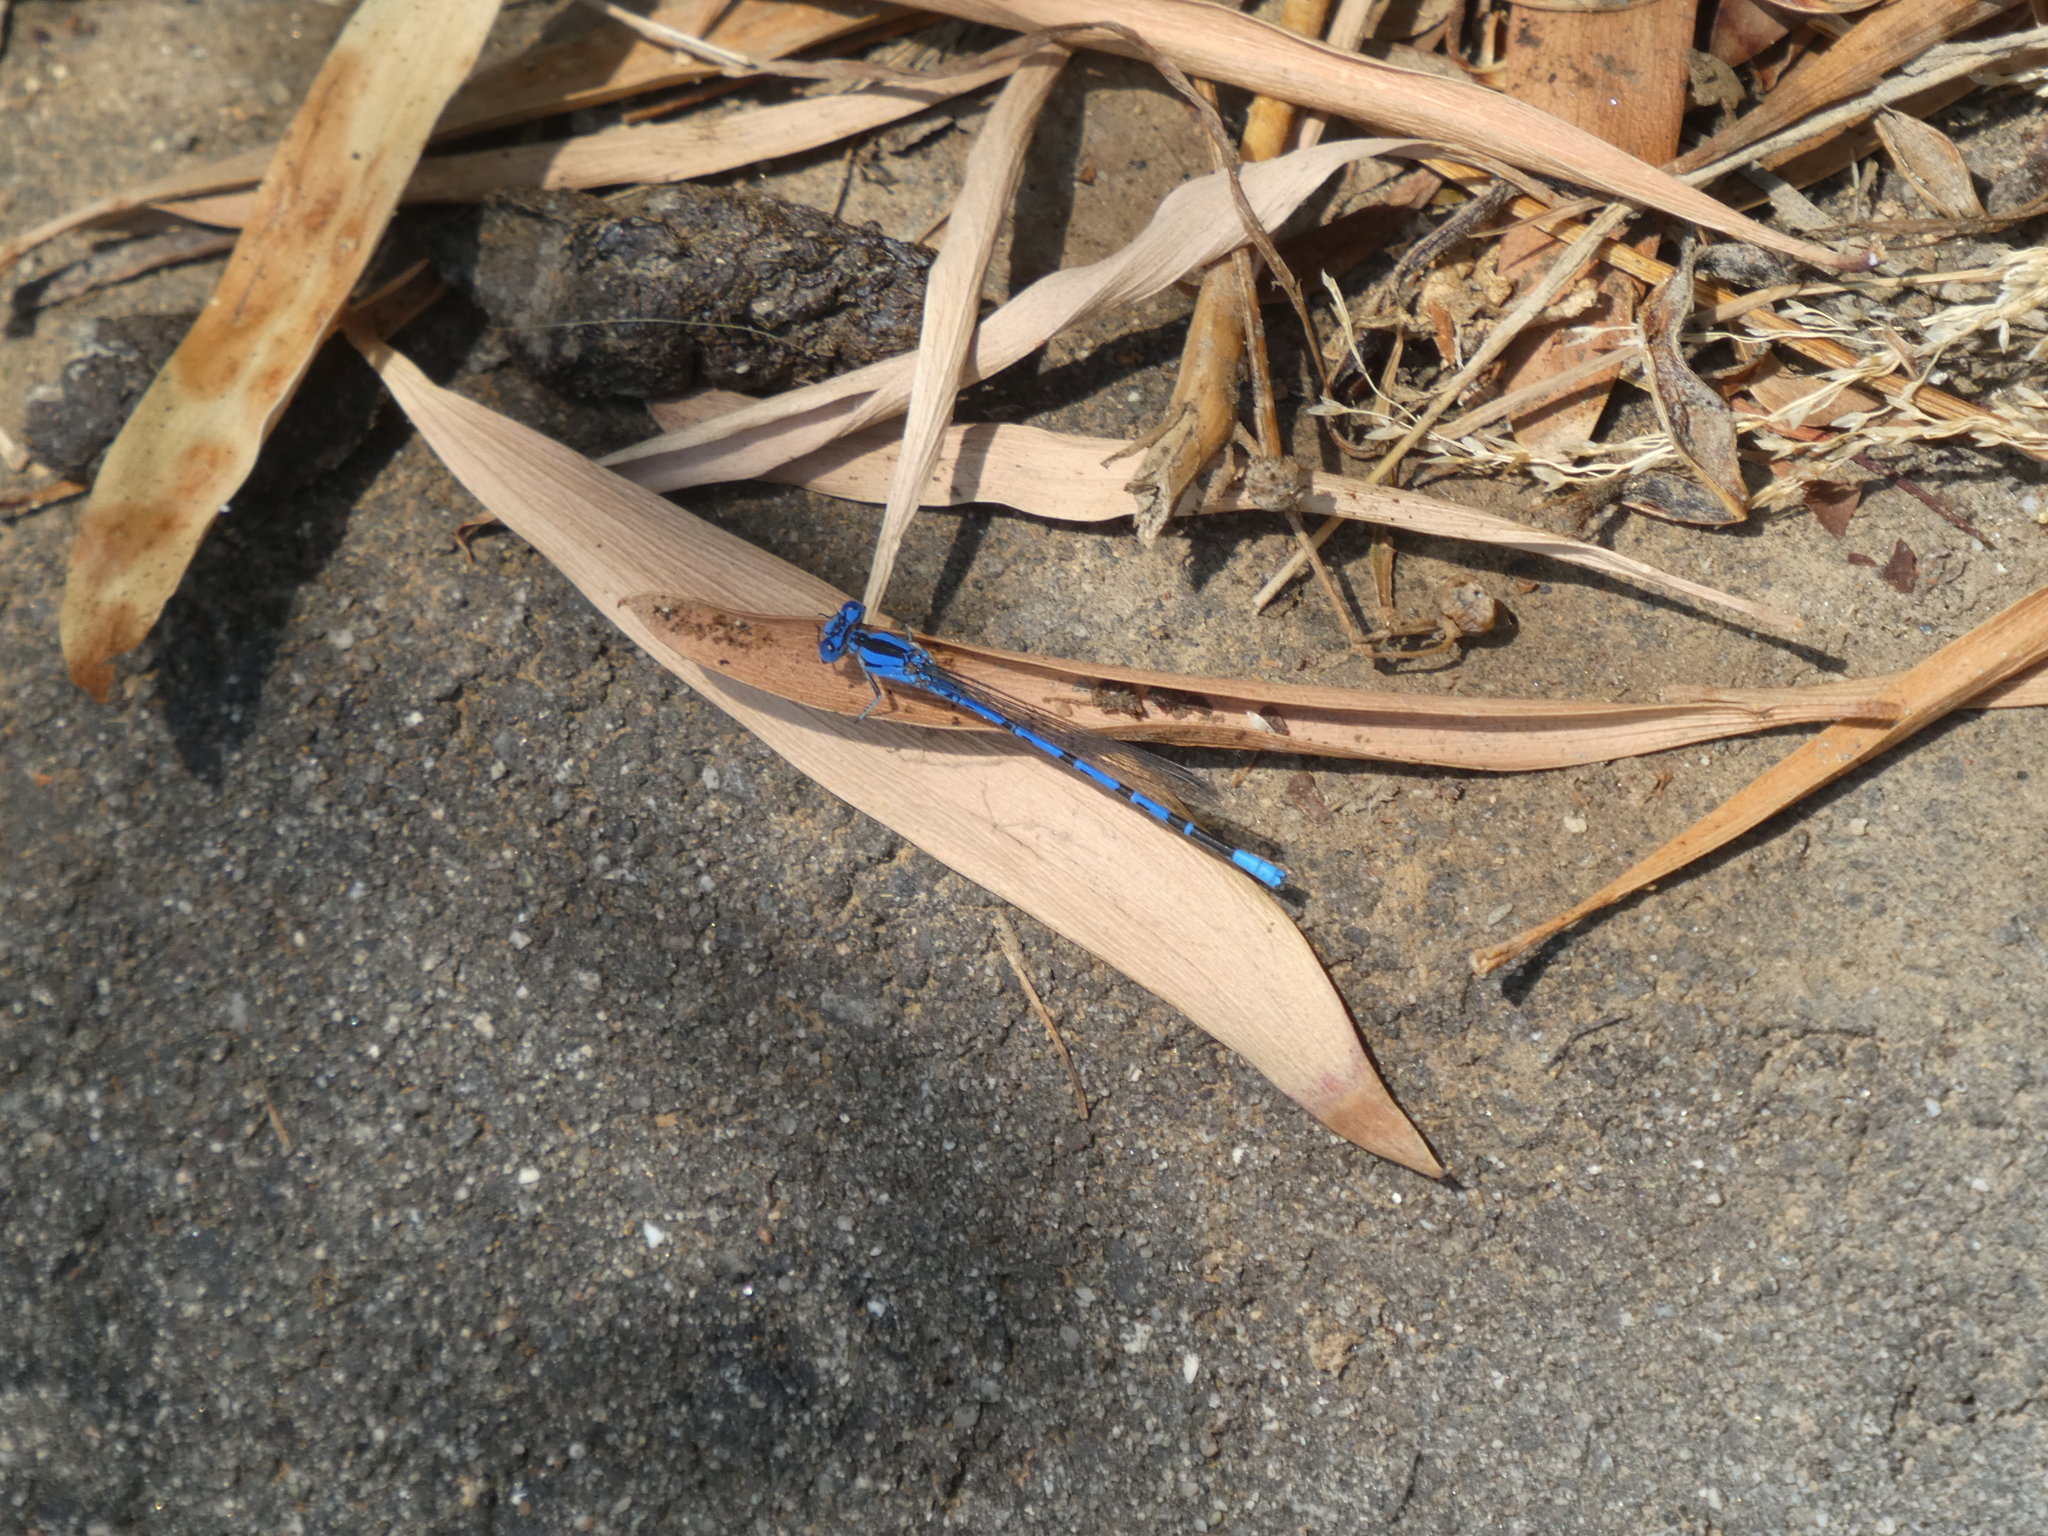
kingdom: Animalia
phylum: Arthropoda
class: Insecta
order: Odonata
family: Coenagrionidae
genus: Argia
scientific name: Argia vivida
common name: Vivid dancer
